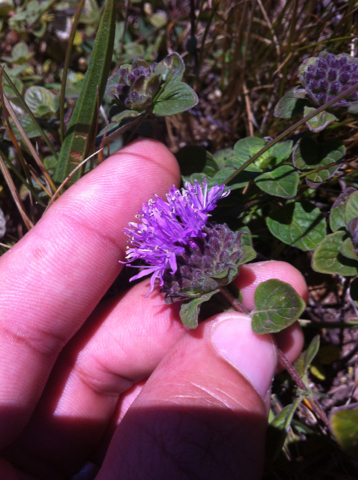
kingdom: Plantae
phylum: Tracheophyta
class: Magnoliopsida
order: Lamiales
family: Lamiaceae
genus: Monardella
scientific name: Monardella odoratissima
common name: Pacific monardella
